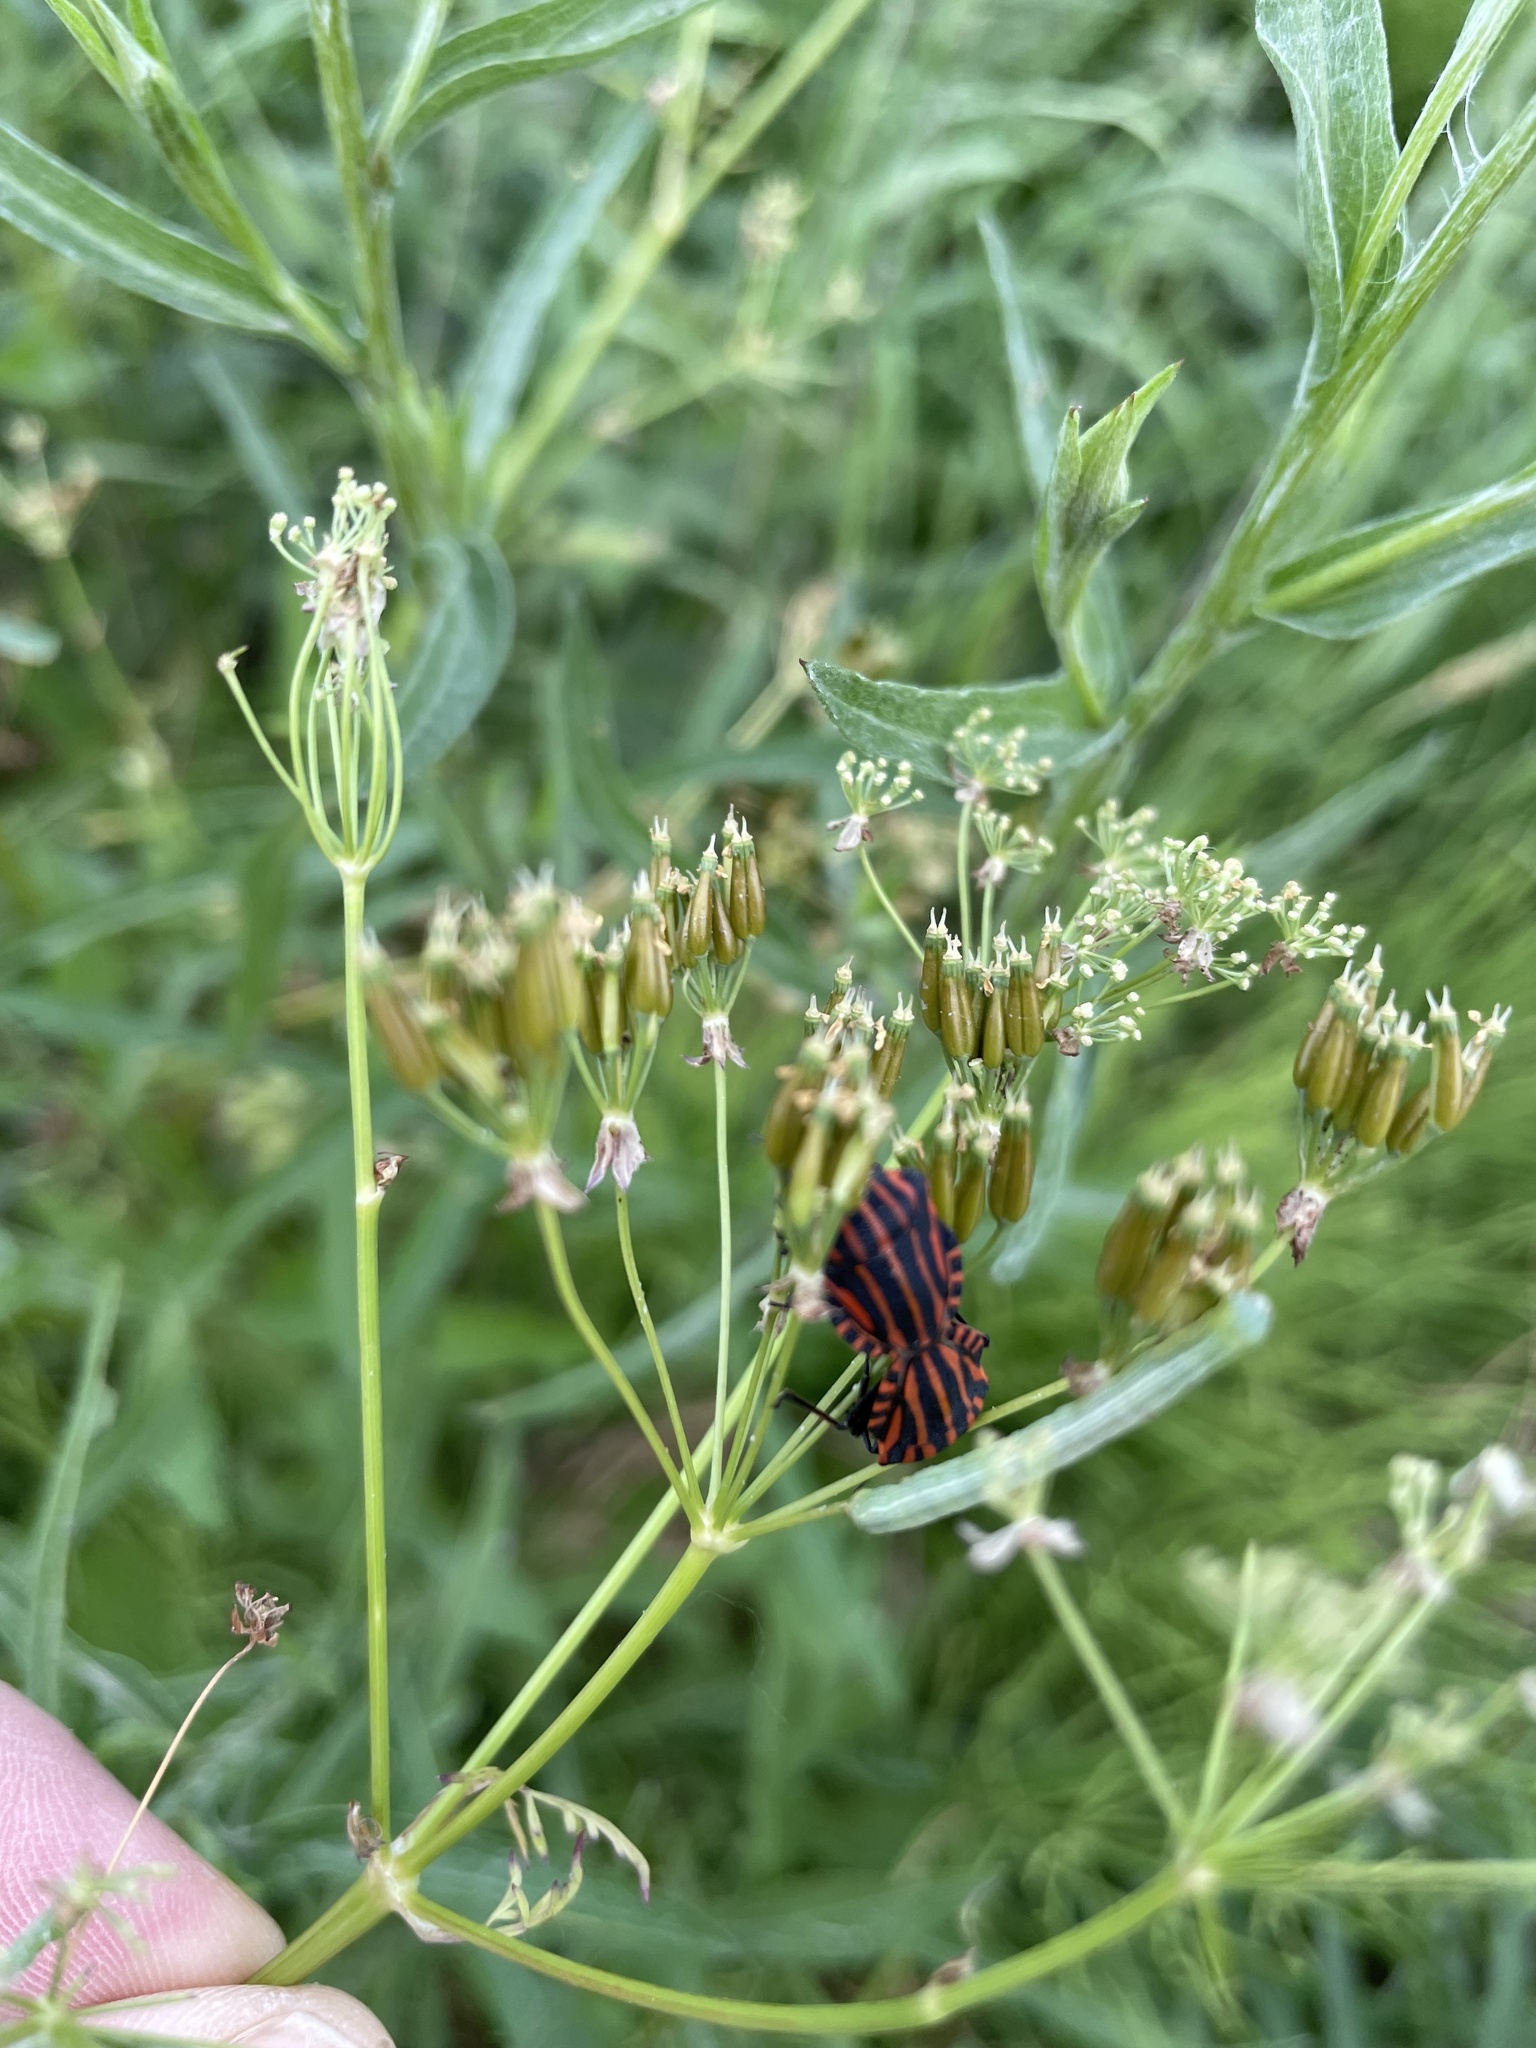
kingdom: Animalia
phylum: Arthropoda
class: Insecta
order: Hemiptera
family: Pentatomidae
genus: Graphosoma
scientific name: Graphosoma italicum
